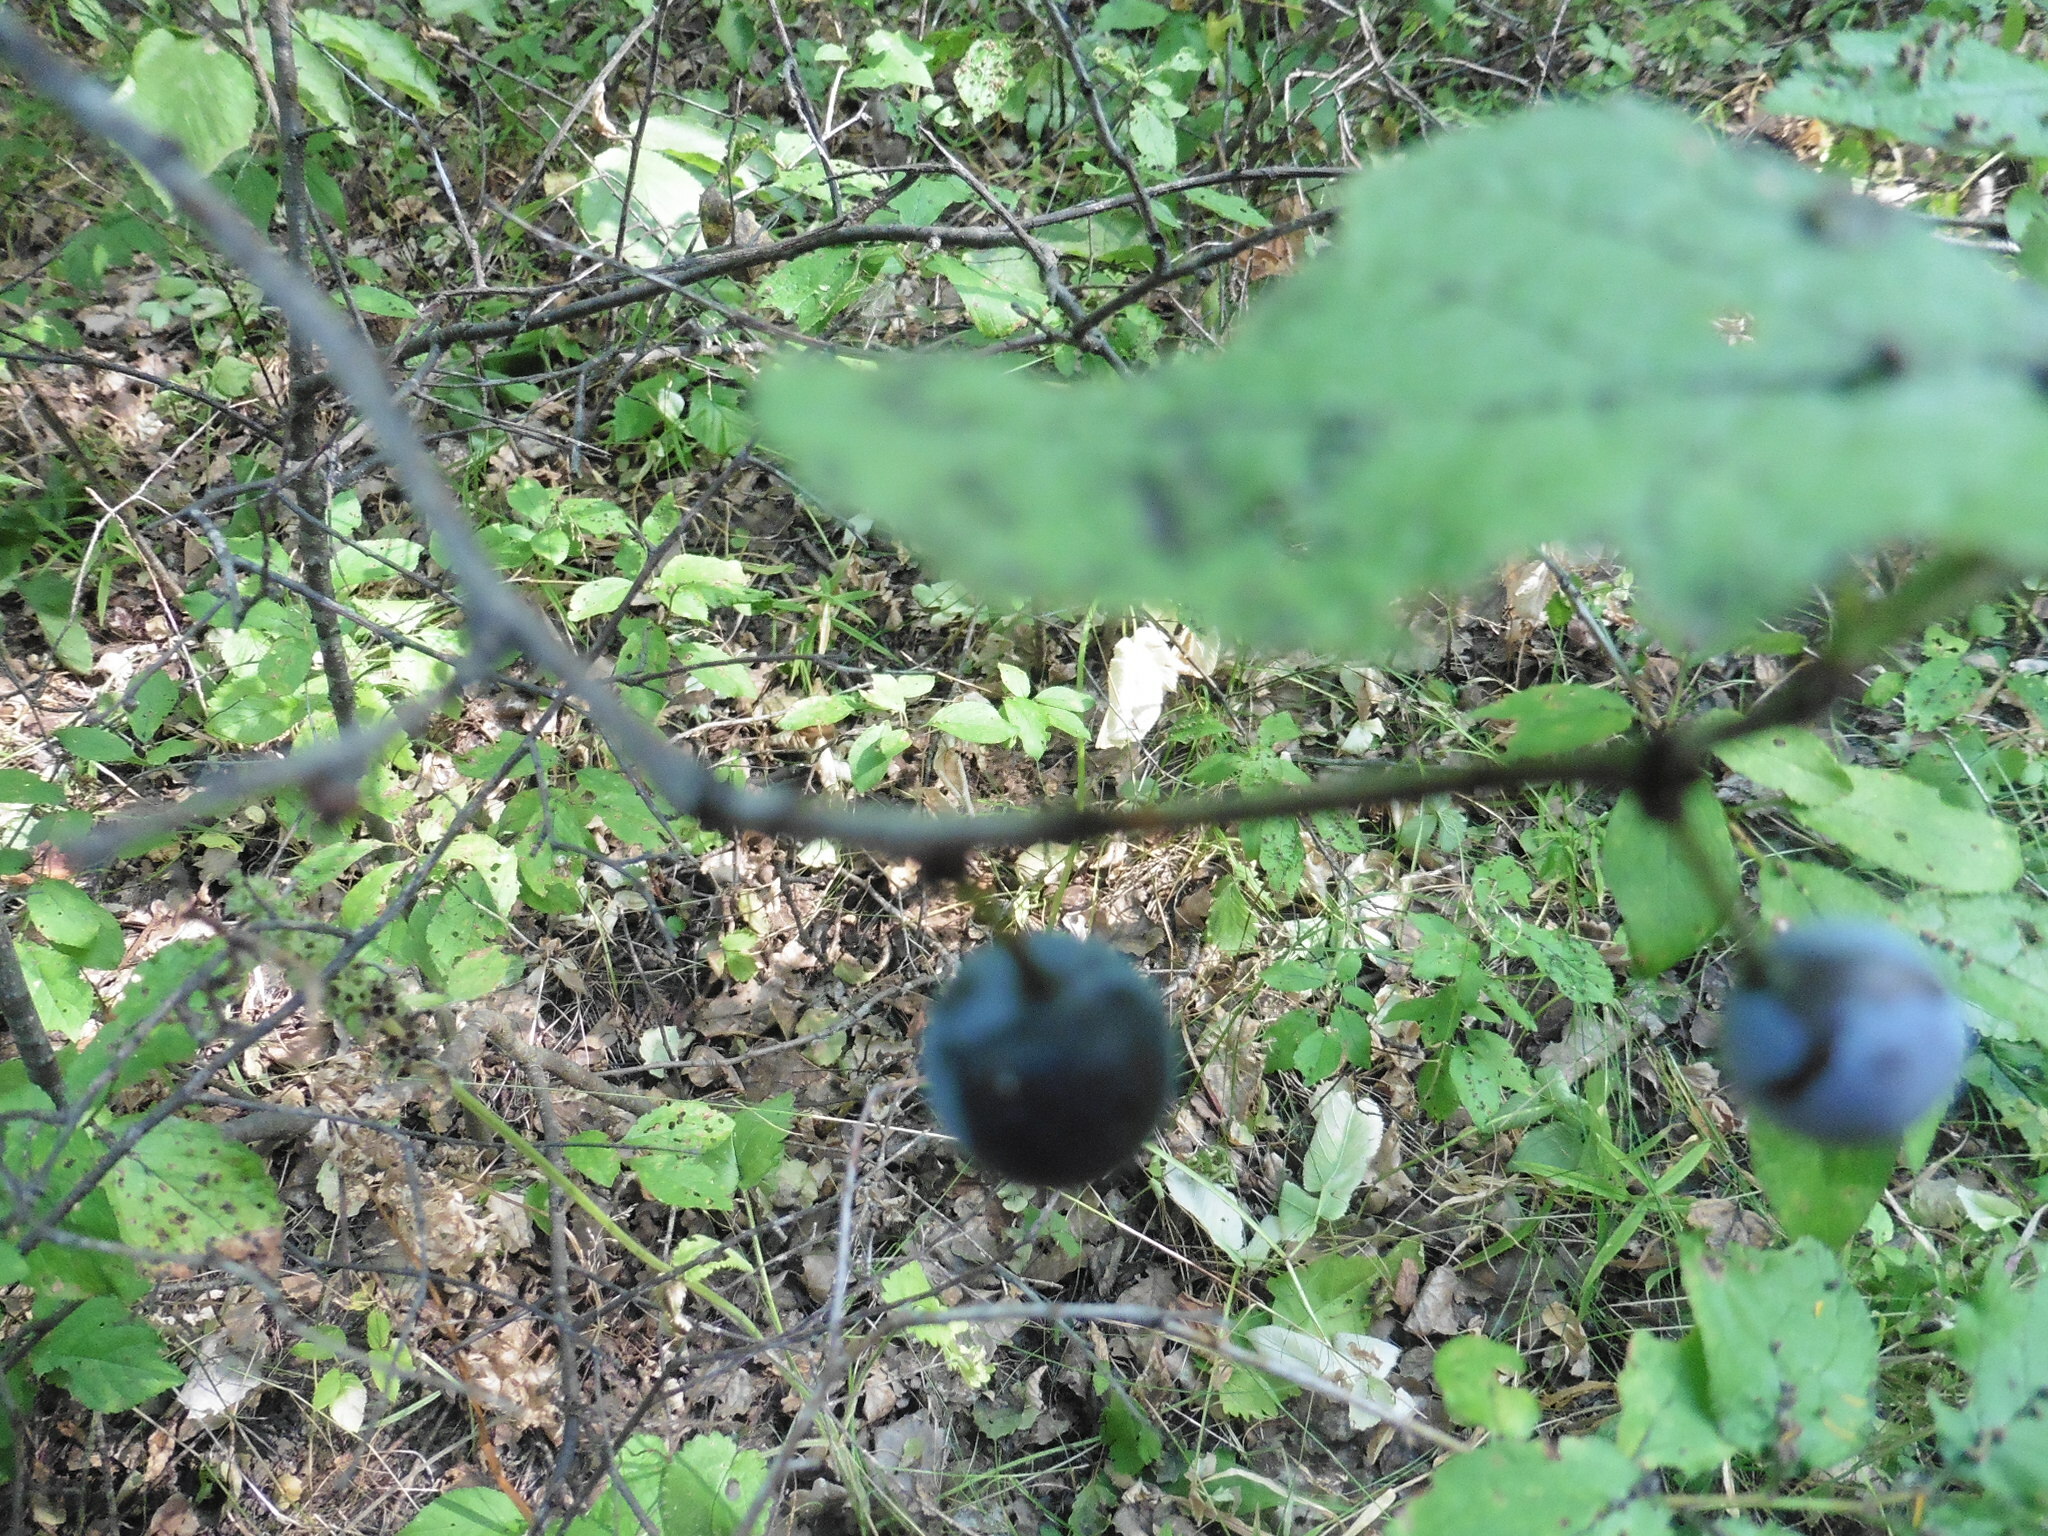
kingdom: Plantae
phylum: Tracheophyta
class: Magnoliopsida
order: Rosales
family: Rosaceae
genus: Prunus
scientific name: Prunus spinosa
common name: Blackthorn
